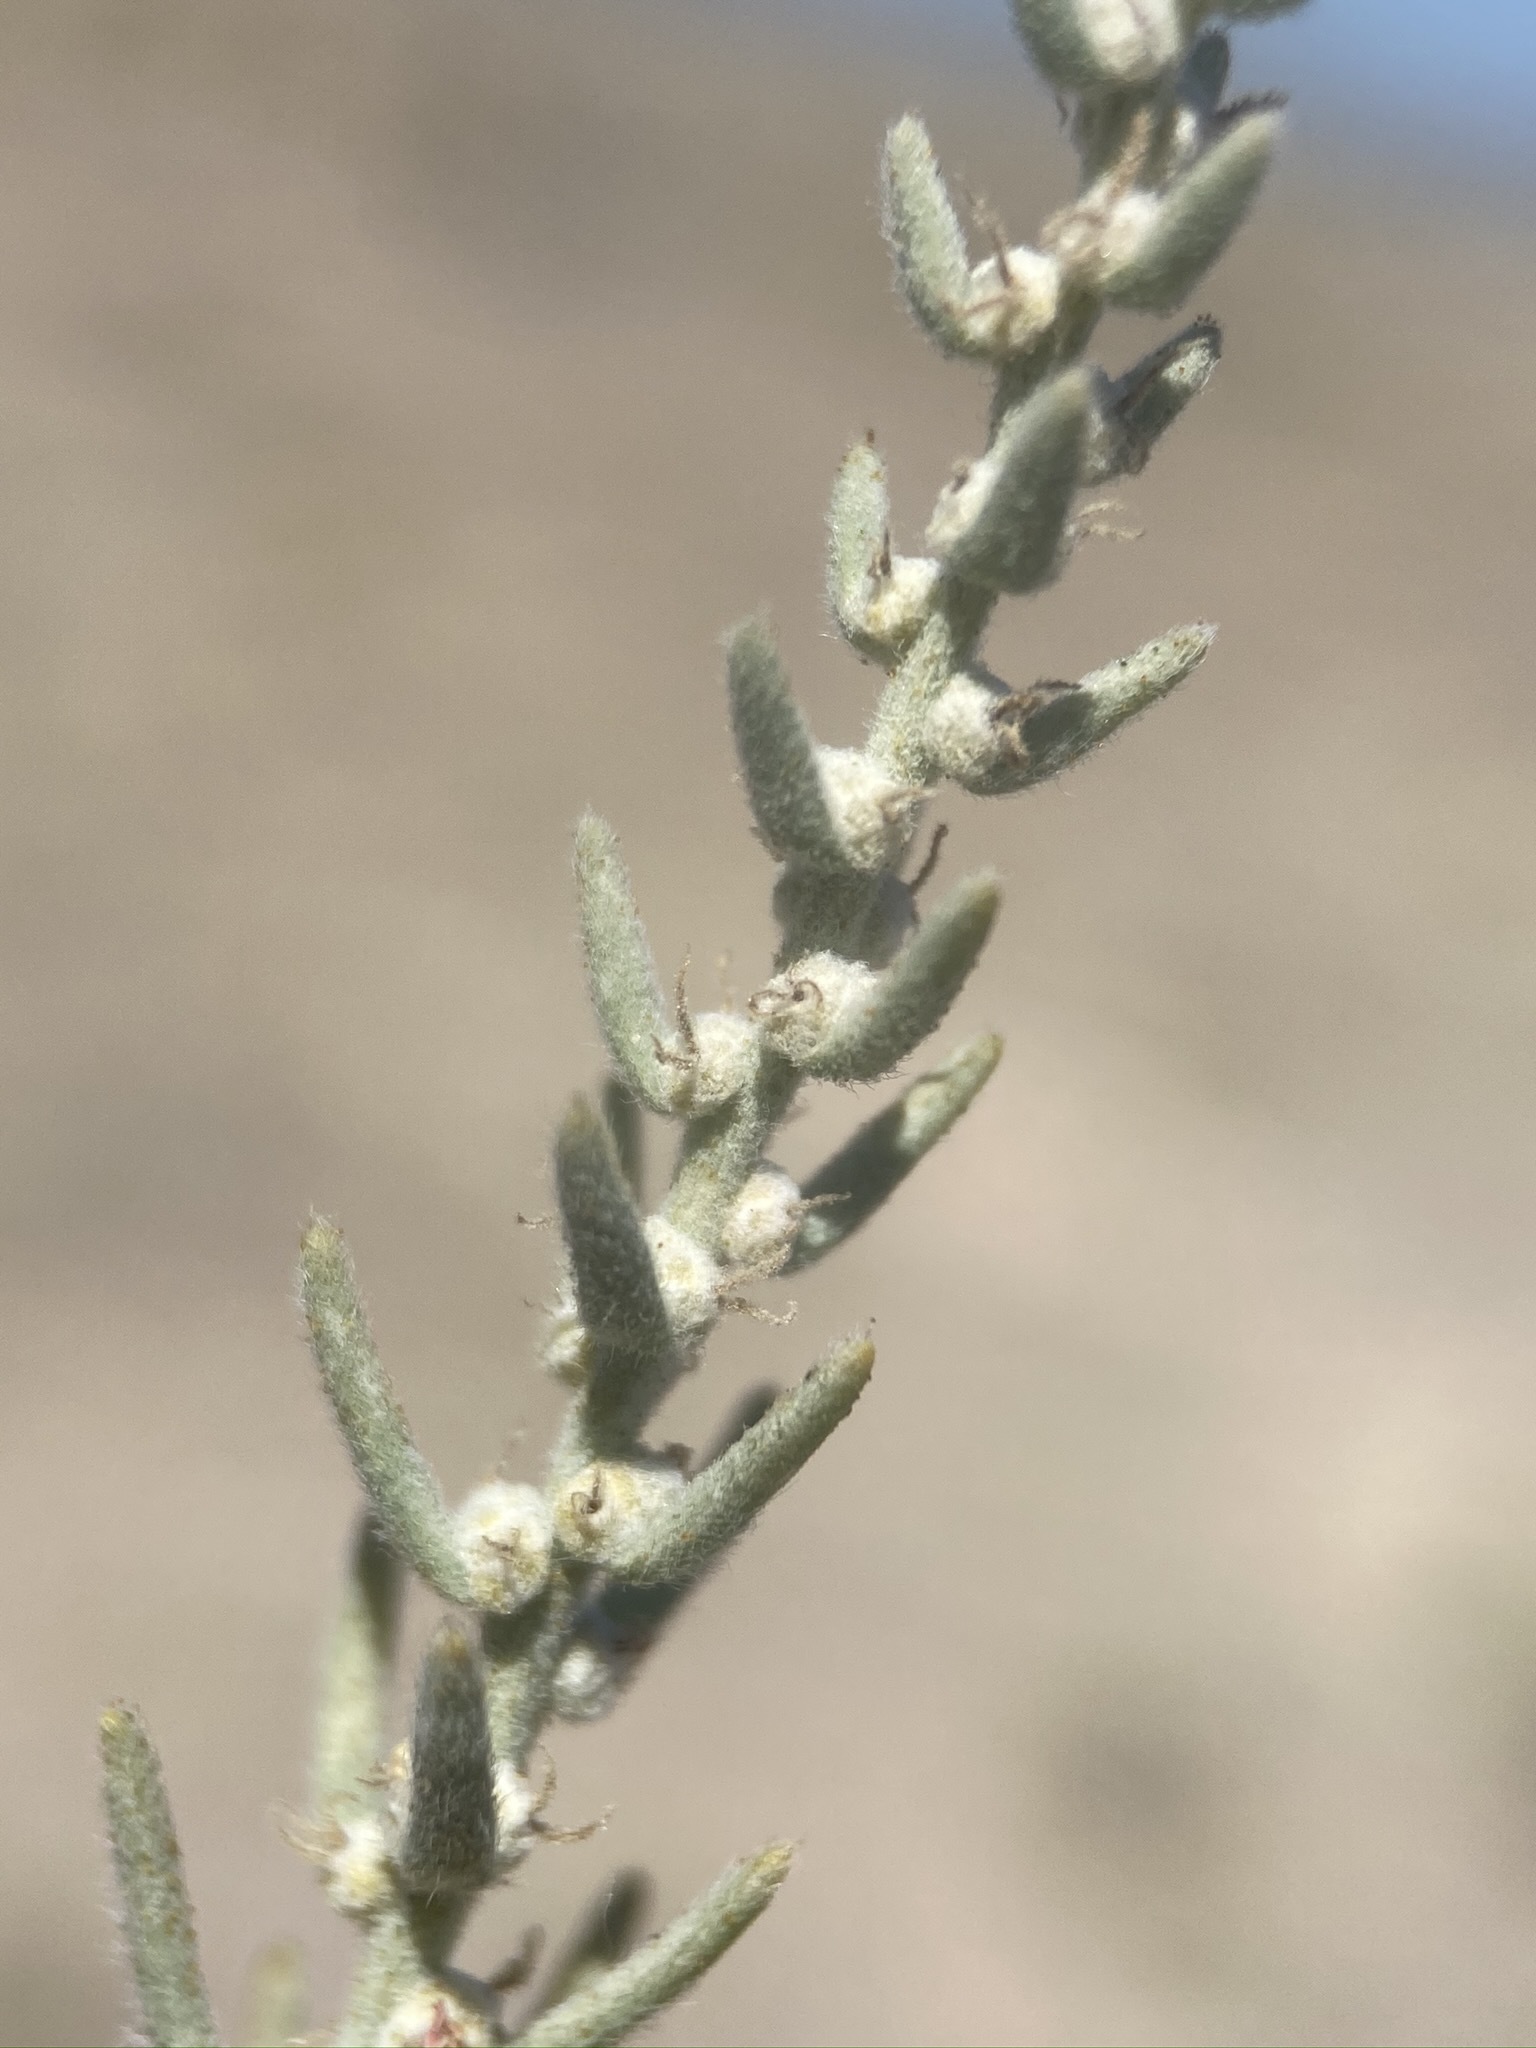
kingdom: Plantae
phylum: Tracheophyta
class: Magnoliopsida
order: Caryophyllales
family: Amaranthaceae
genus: Neokochia
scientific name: Neokochia americana
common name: Perennial summer-cypress
